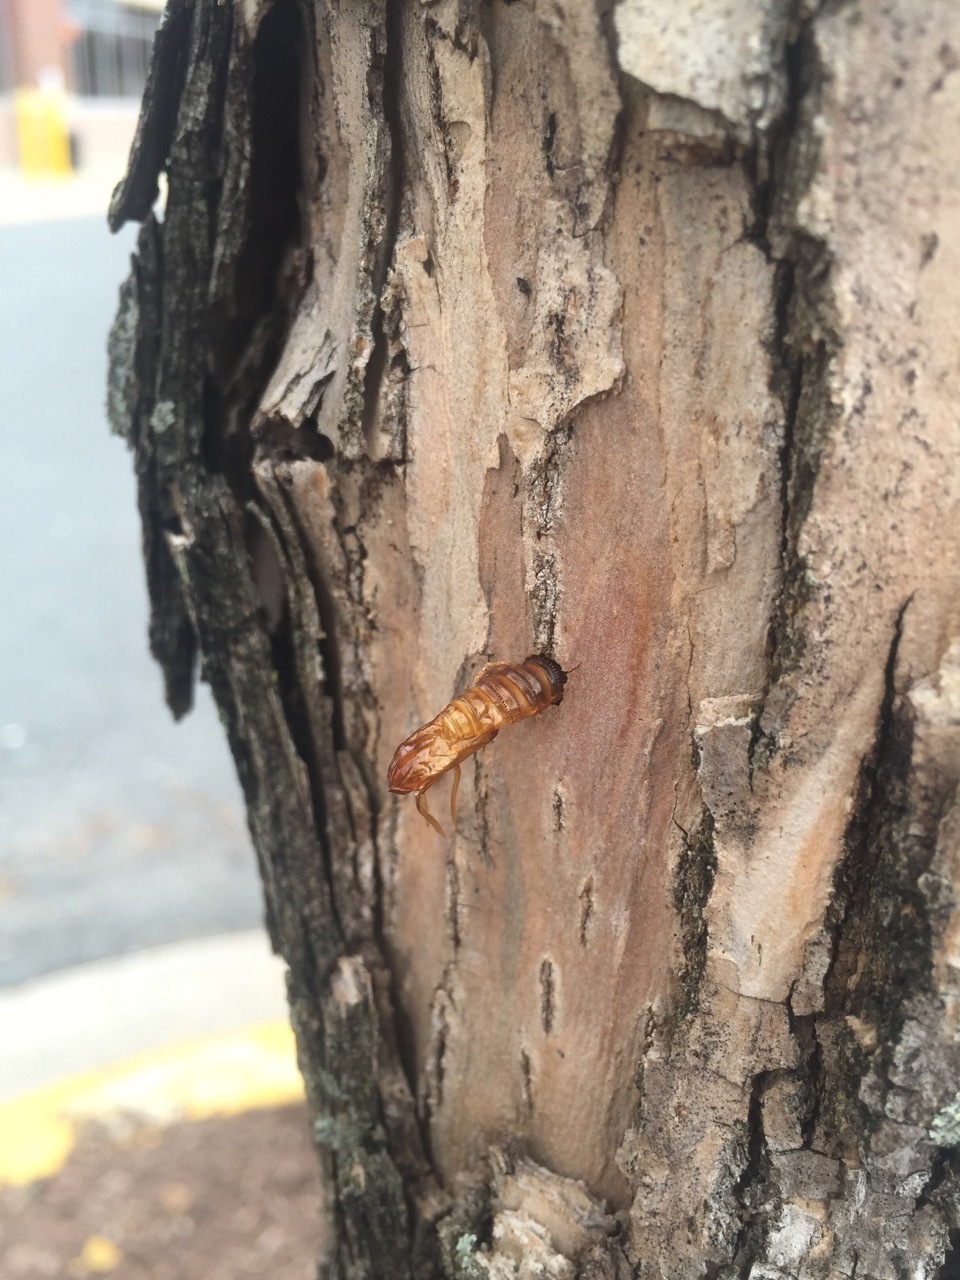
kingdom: Animalia
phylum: Arthropoda
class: Insecta
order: Lepidoptera
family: Cossidae
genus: Prionoxystus
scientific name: Prionoxystus robiniae
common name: Carpenterworm
